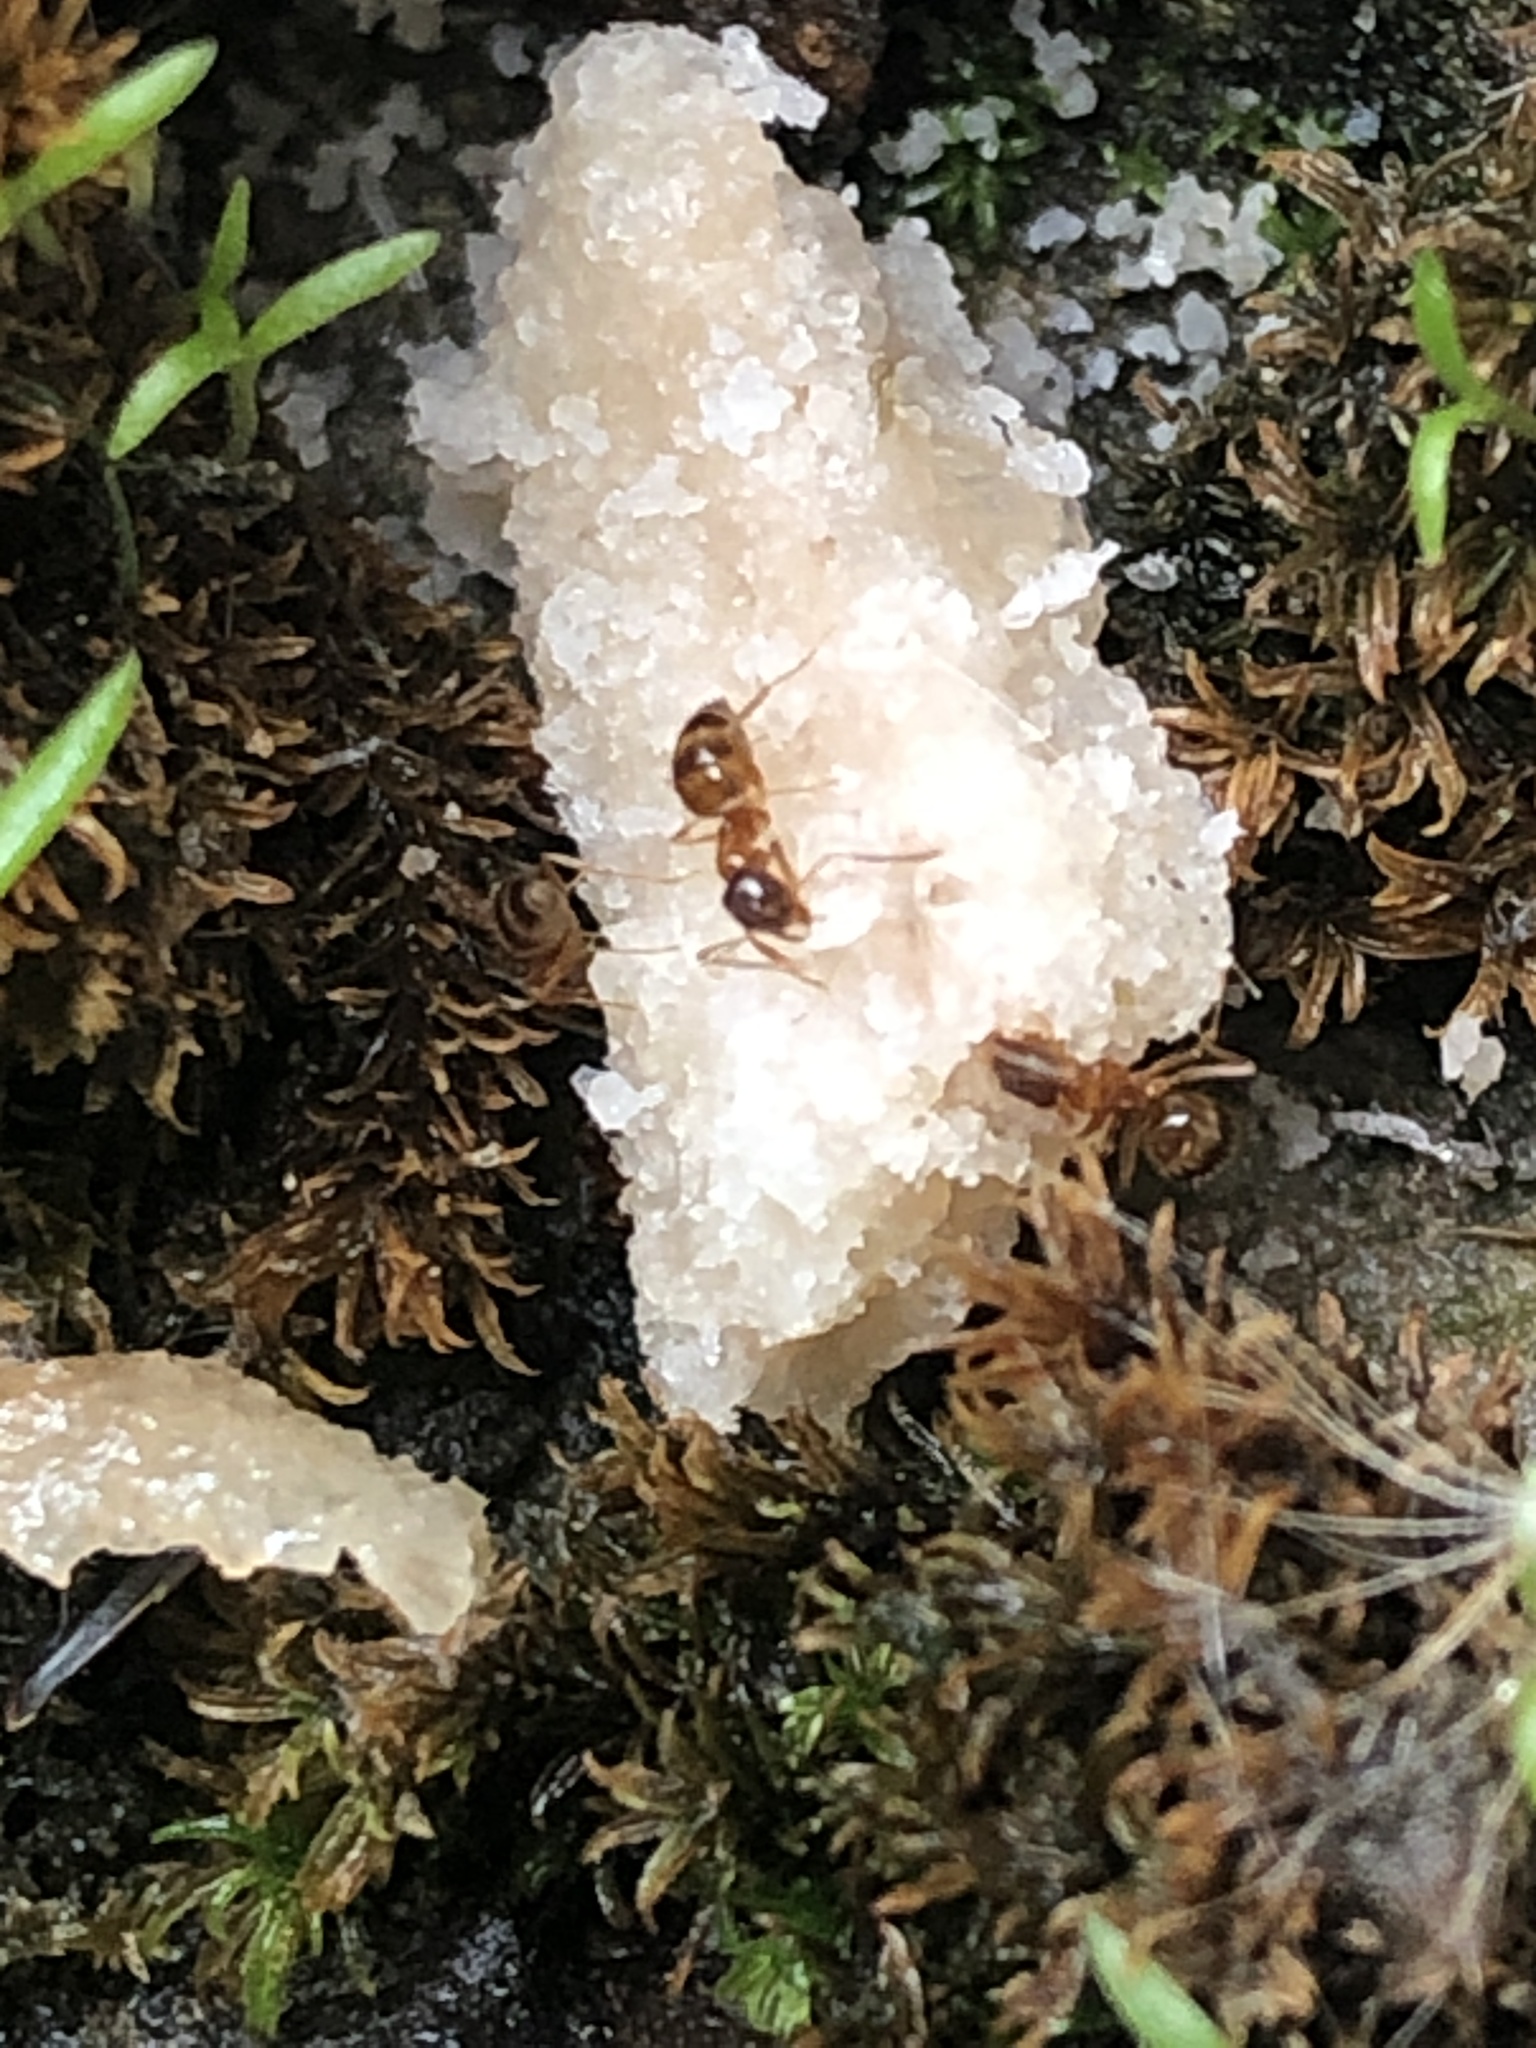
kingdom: Animalia
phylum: Arthropoda
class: Insecta
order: Hymenoptera
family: Formicidae
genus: Paratrechina
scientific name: Paratrechina flavipes
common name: Eastern asian formicine ant
